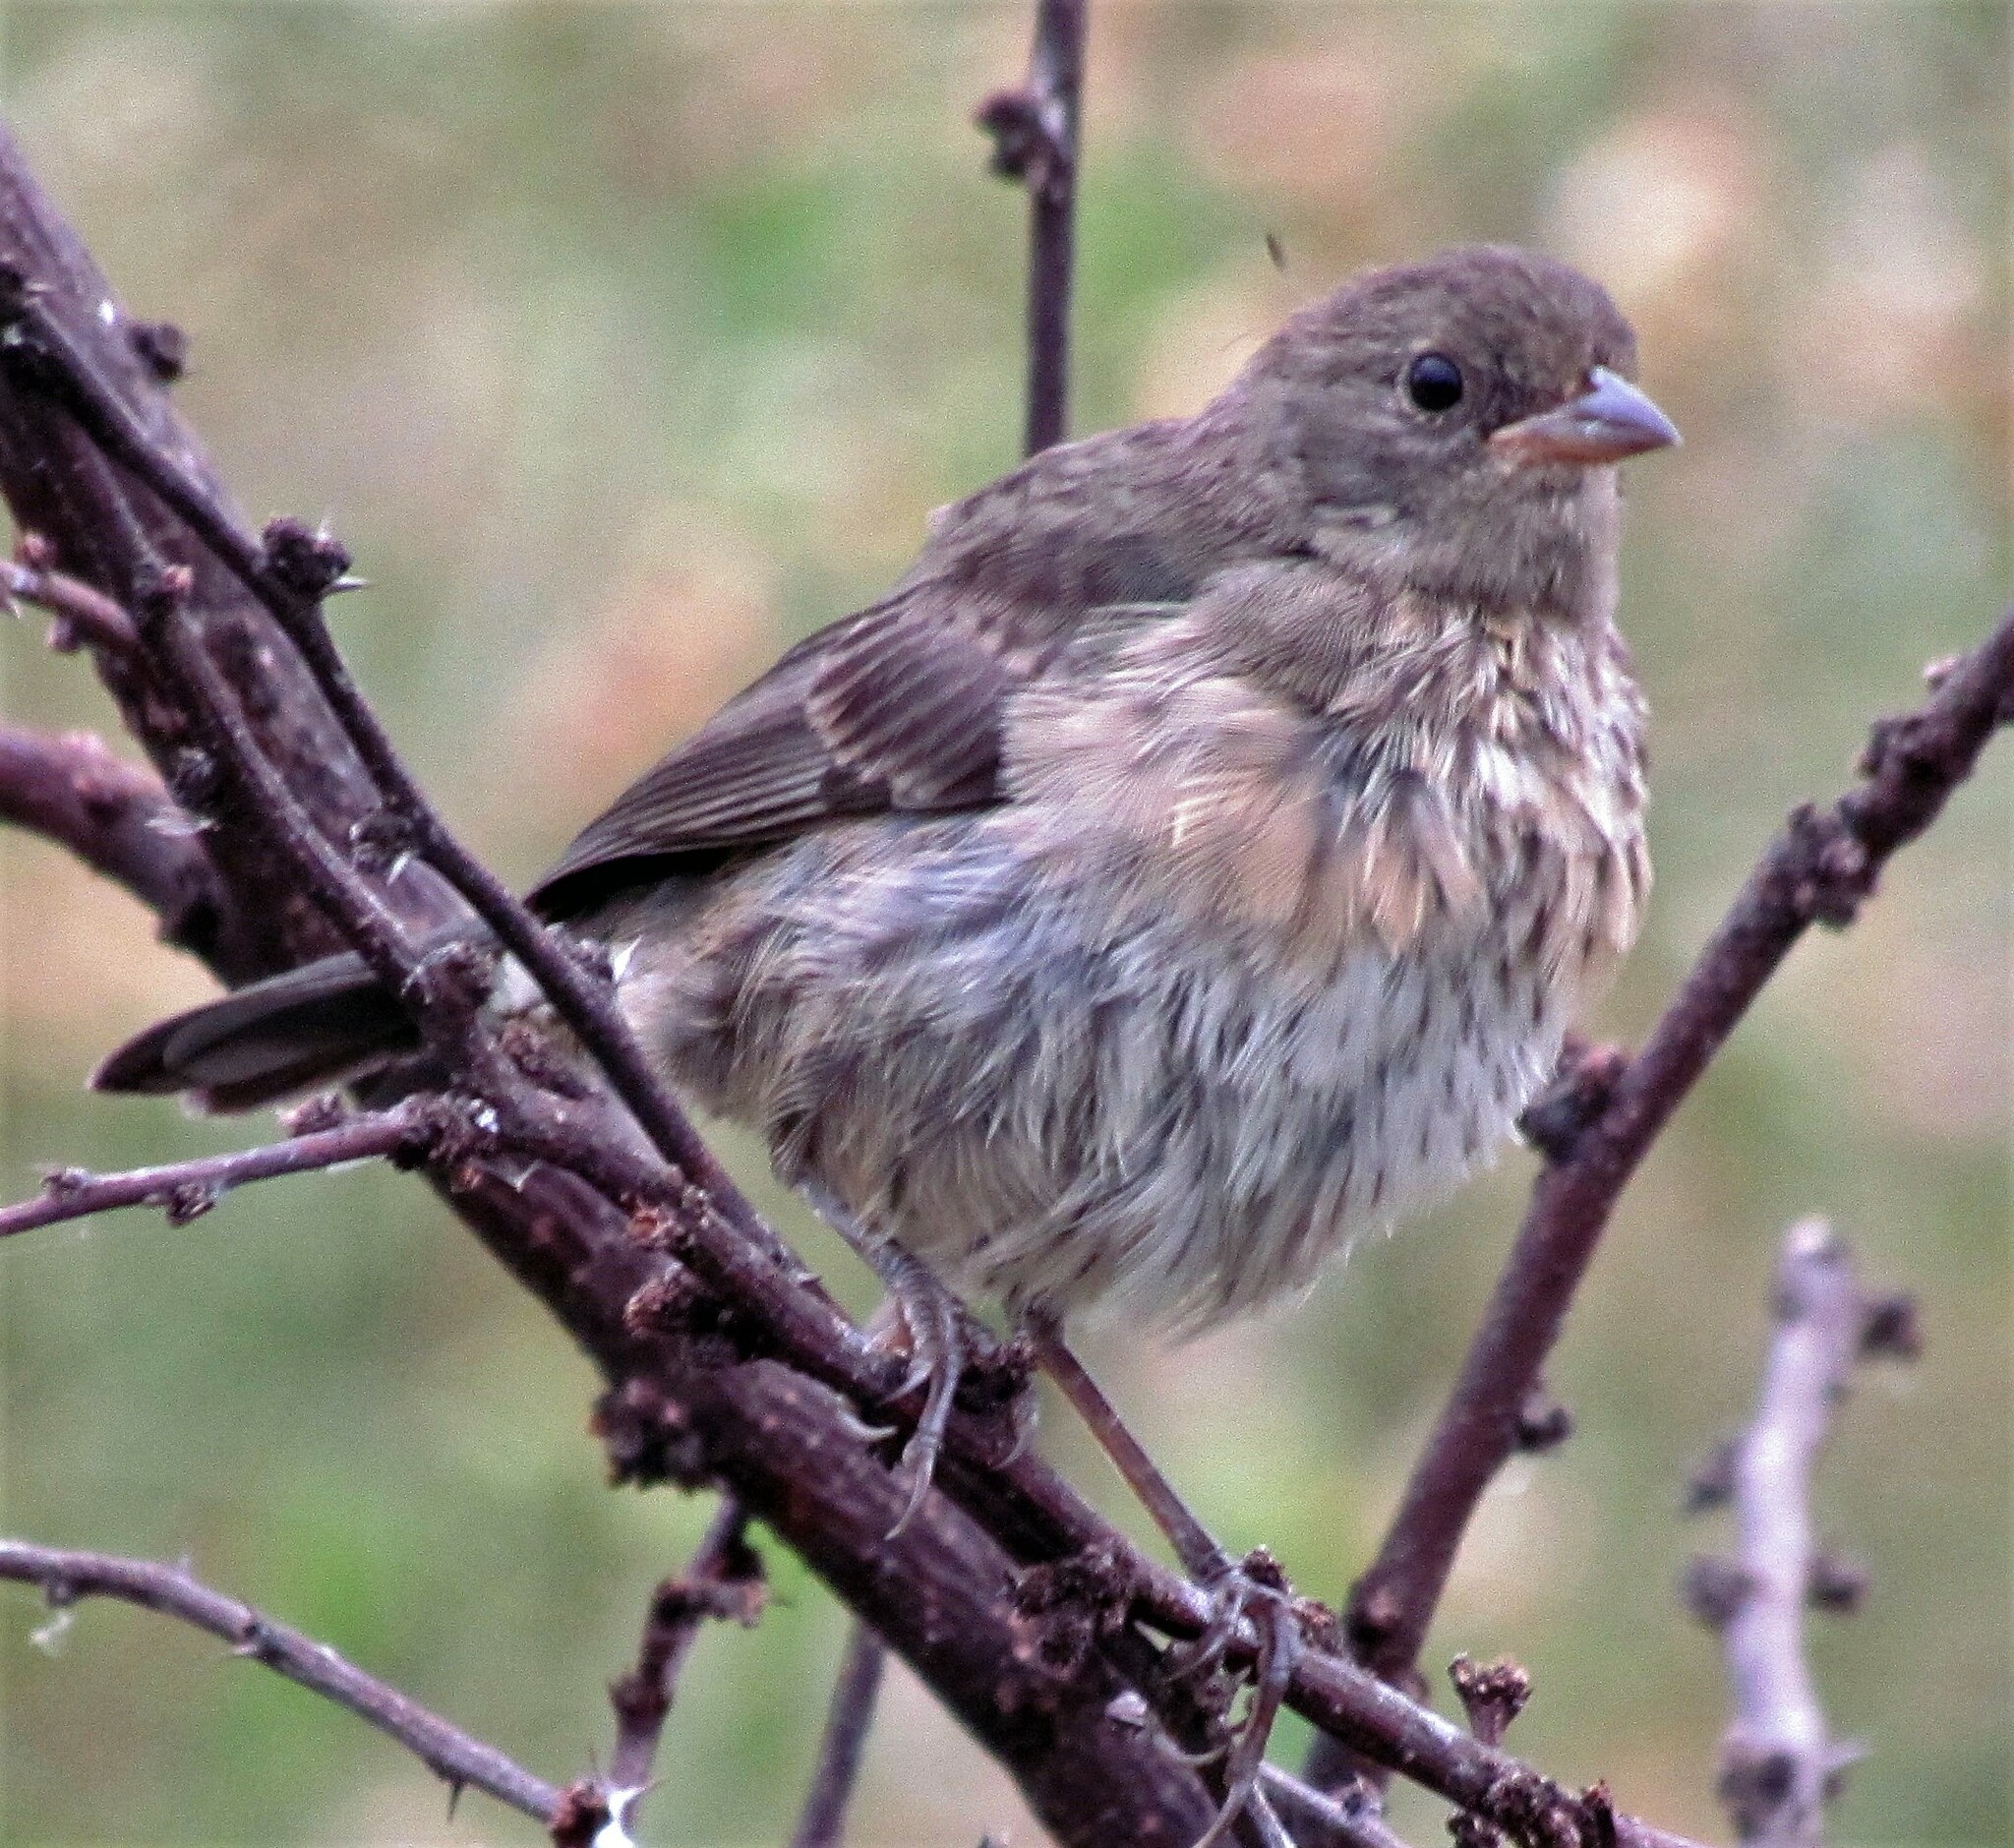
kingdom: Animalia
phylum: Chordata
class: Aves
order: Passeriformes
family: Thraupidae
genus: Poospiza
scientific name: Poospiza nigrorufa
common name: Black-and-rufous warbling finch
